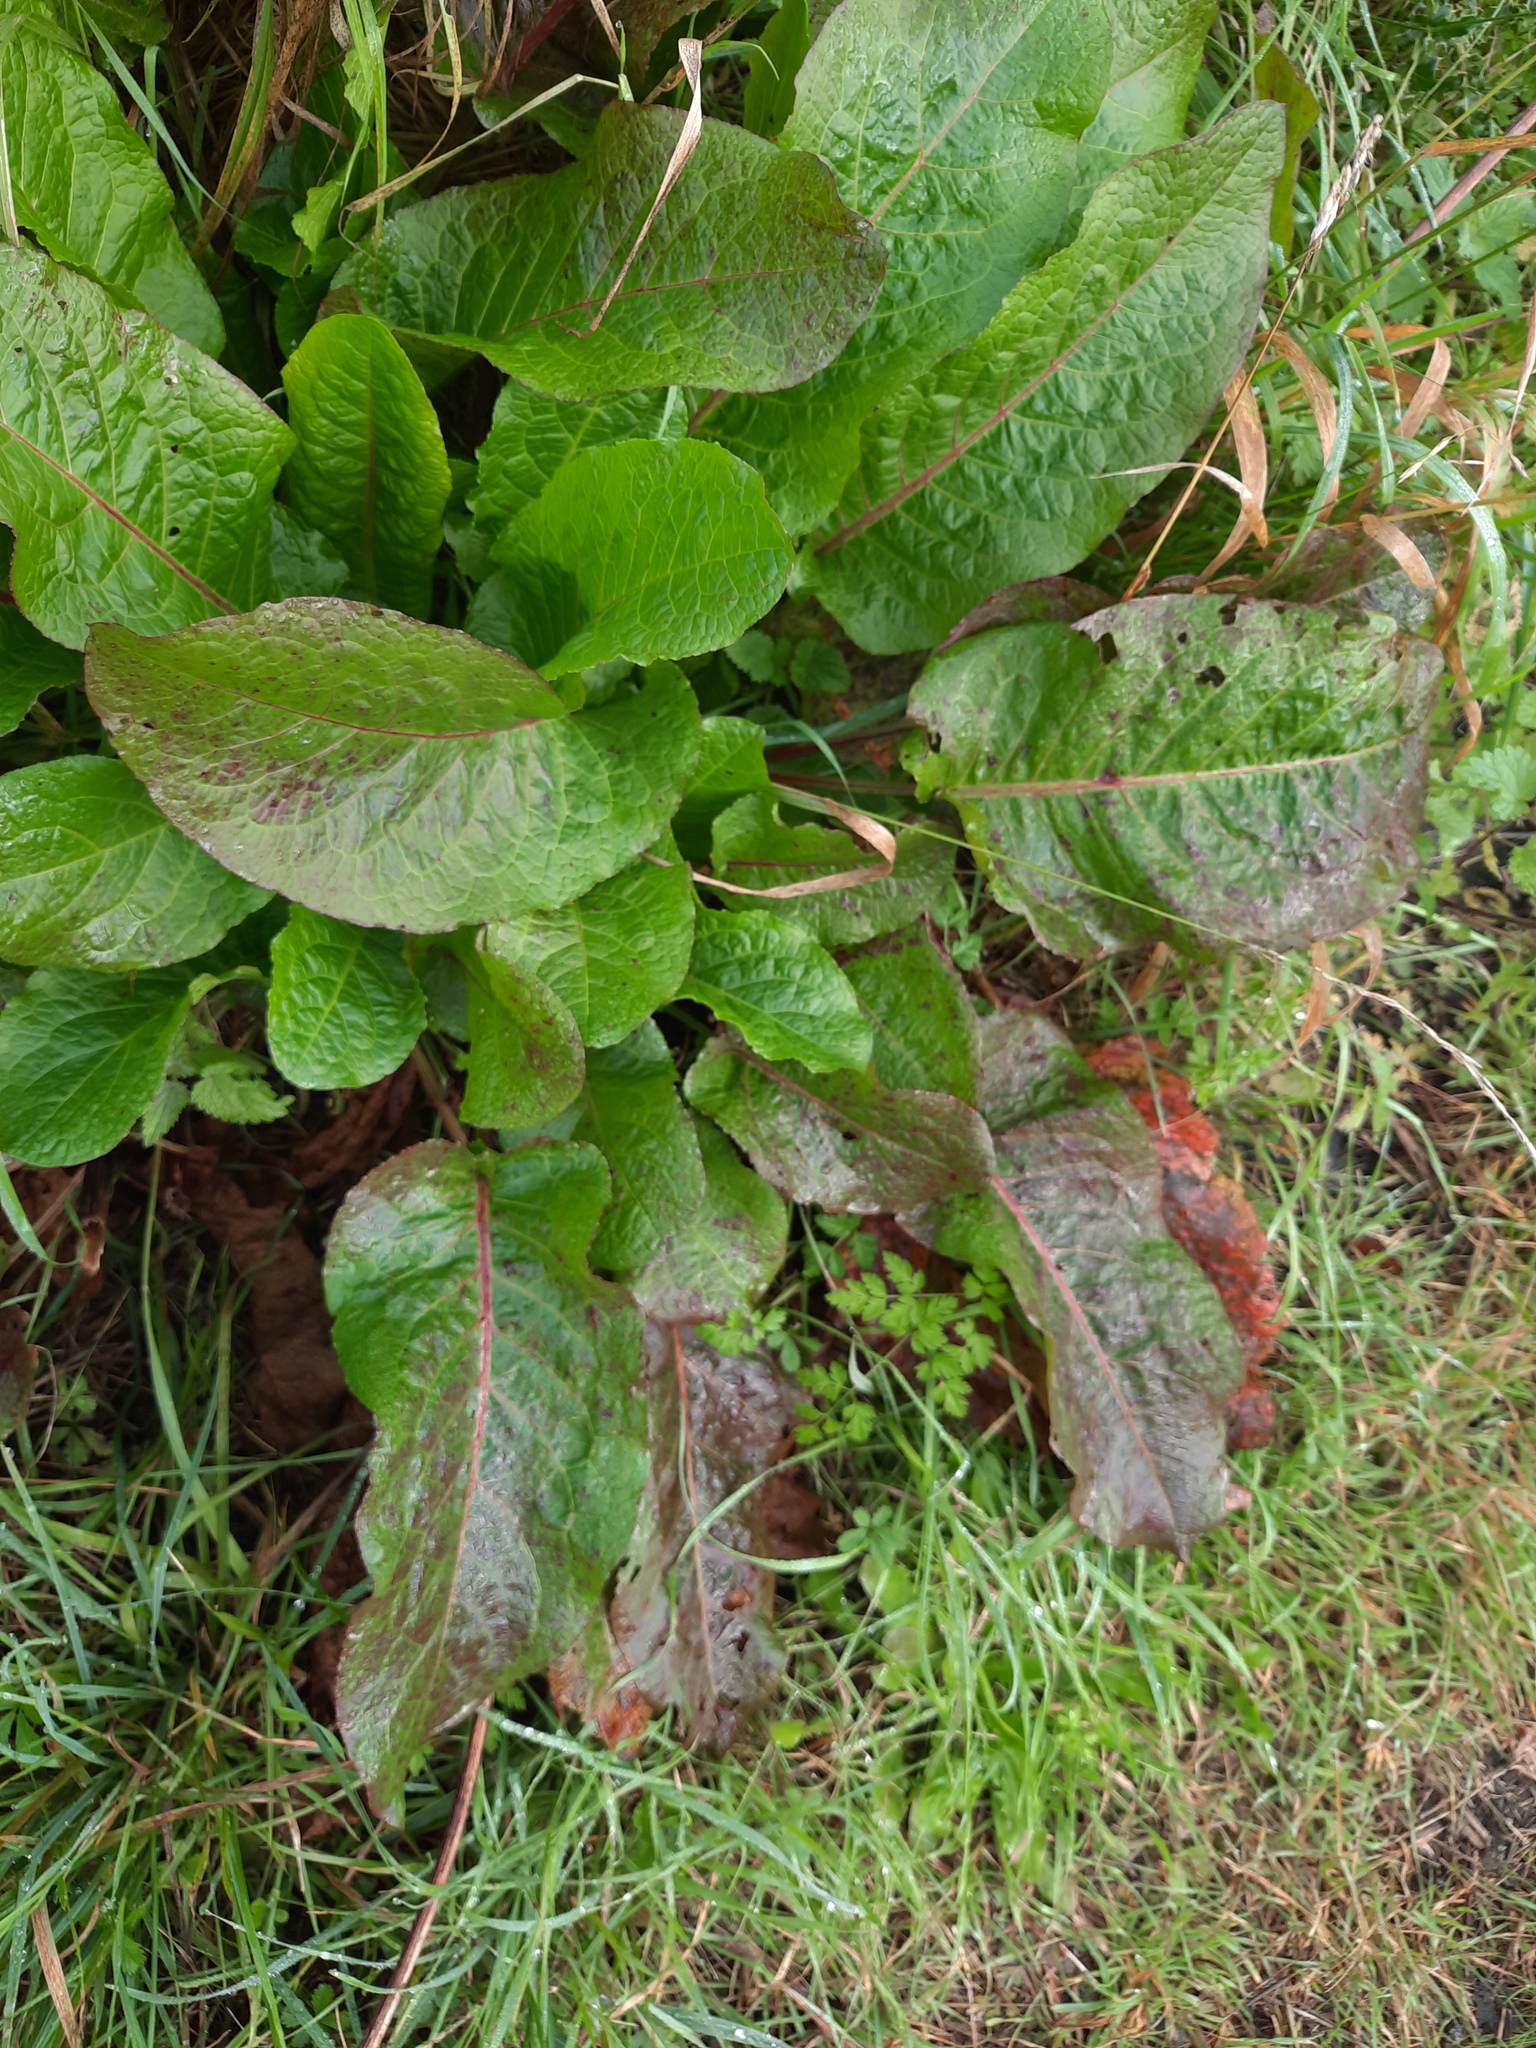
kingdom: Plantae
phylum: Tracheophyta
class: Magnoliopsida
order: Caryophyllales
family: Polygonaceae
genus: Rumex
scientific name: Rumex obtusifolius
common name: Bitter dock
